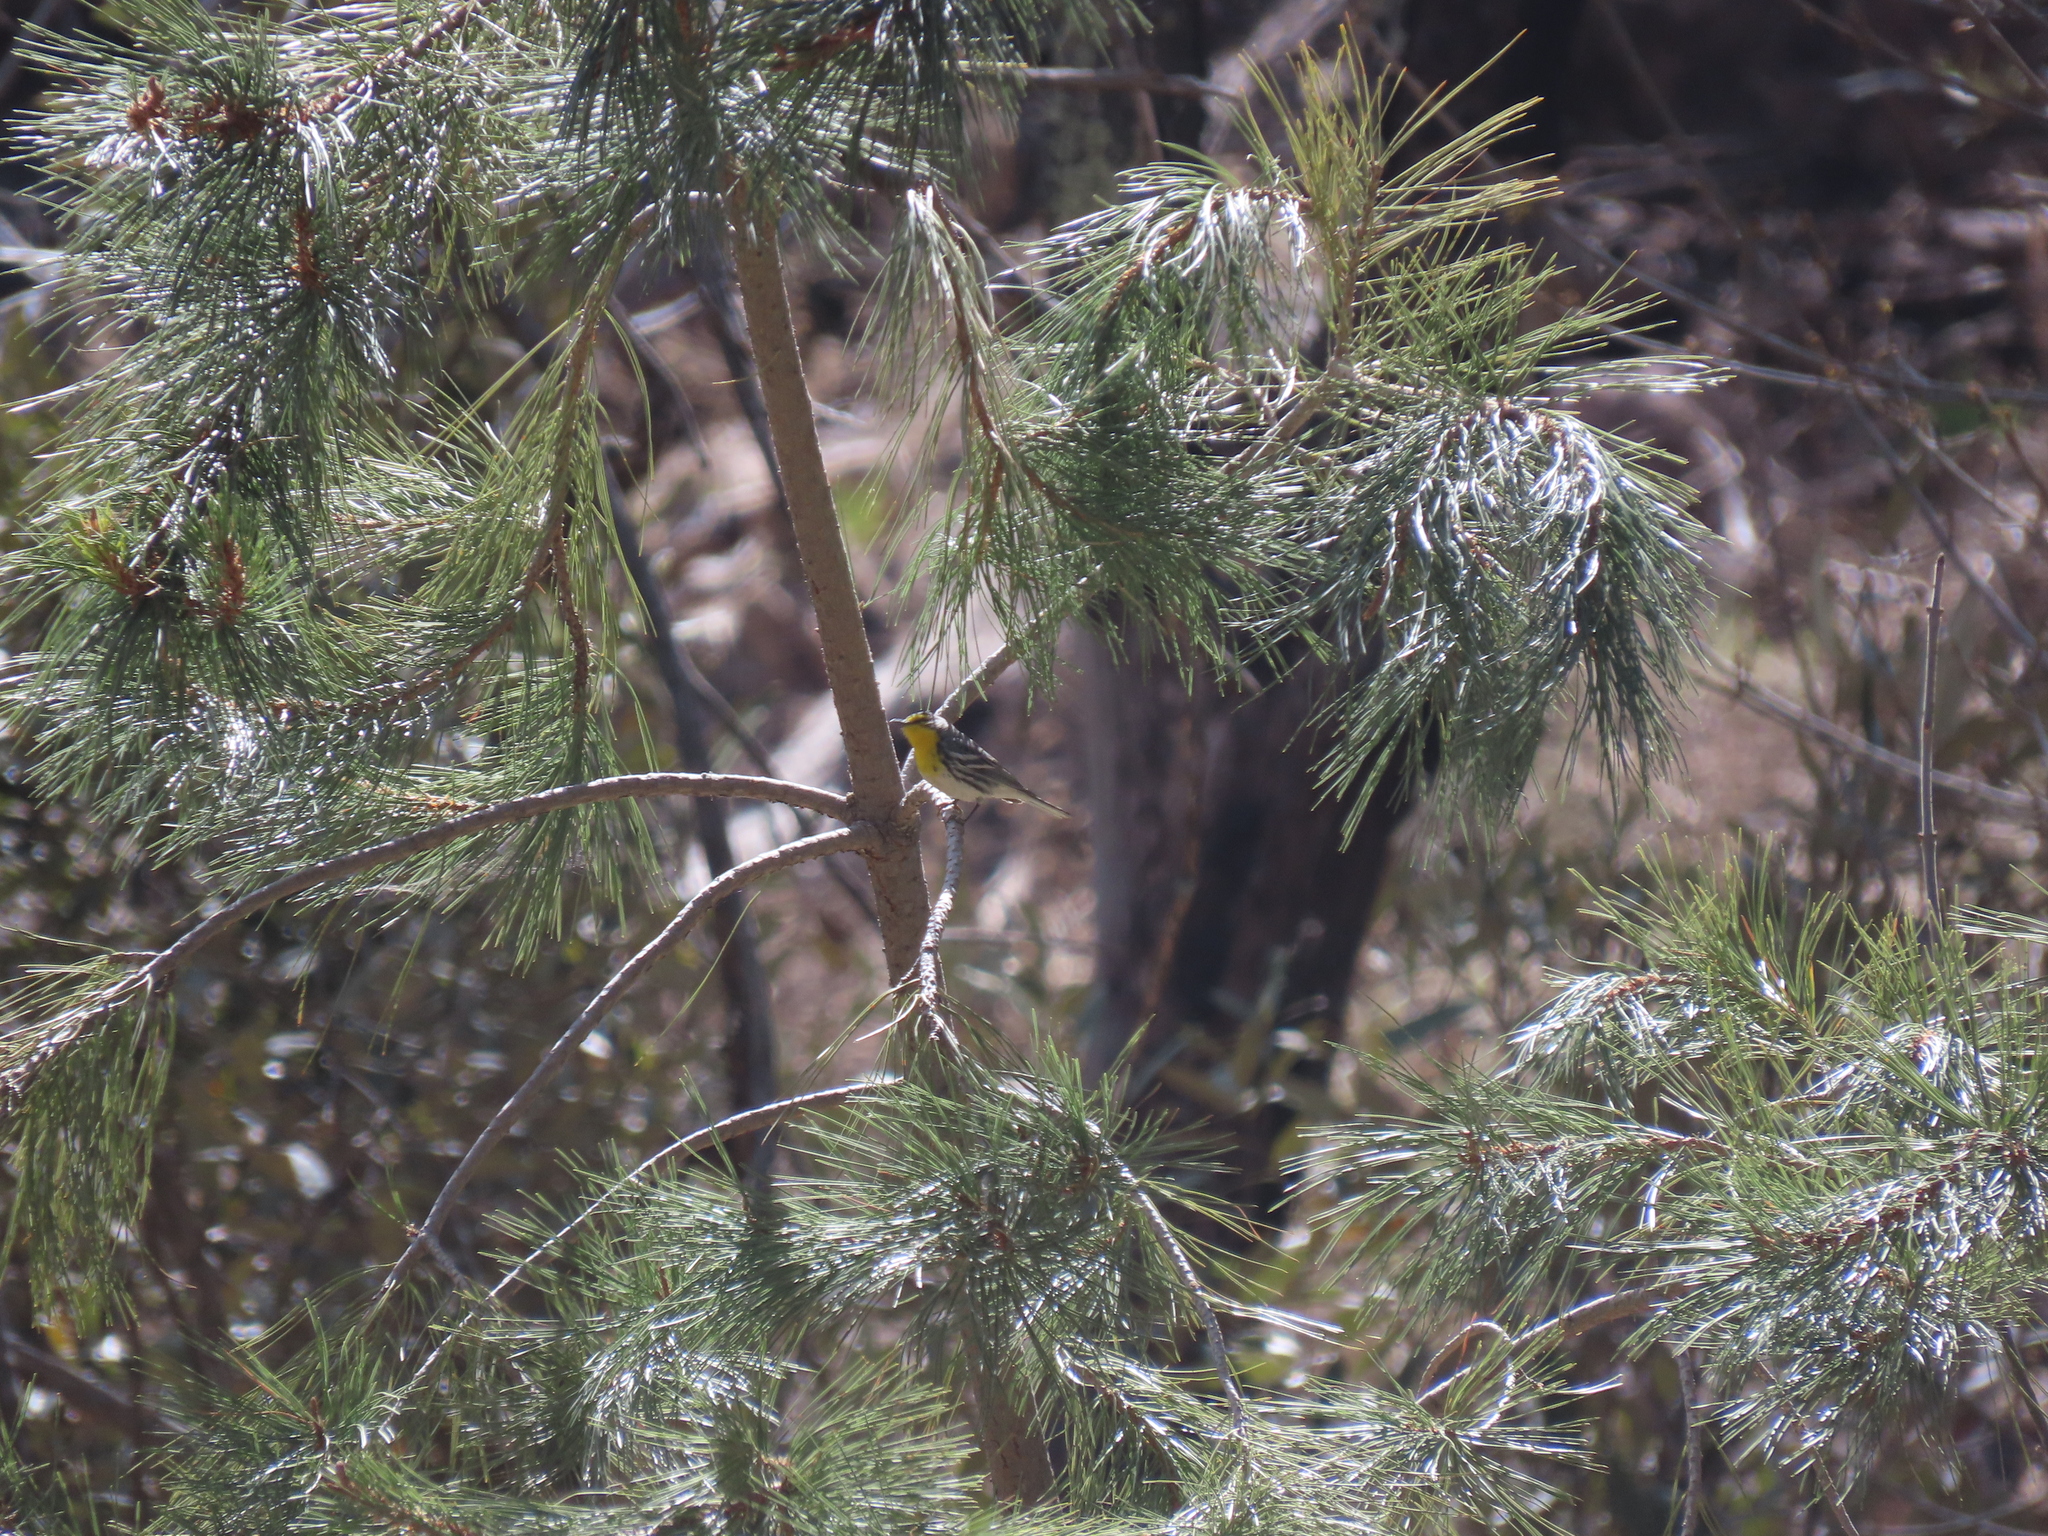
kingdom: Animalia
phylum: Chordata
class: Aves
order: Passeriformes
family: Parulidae
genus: Setophaga
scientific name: Setophaga graciae
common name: Grace's warbler
